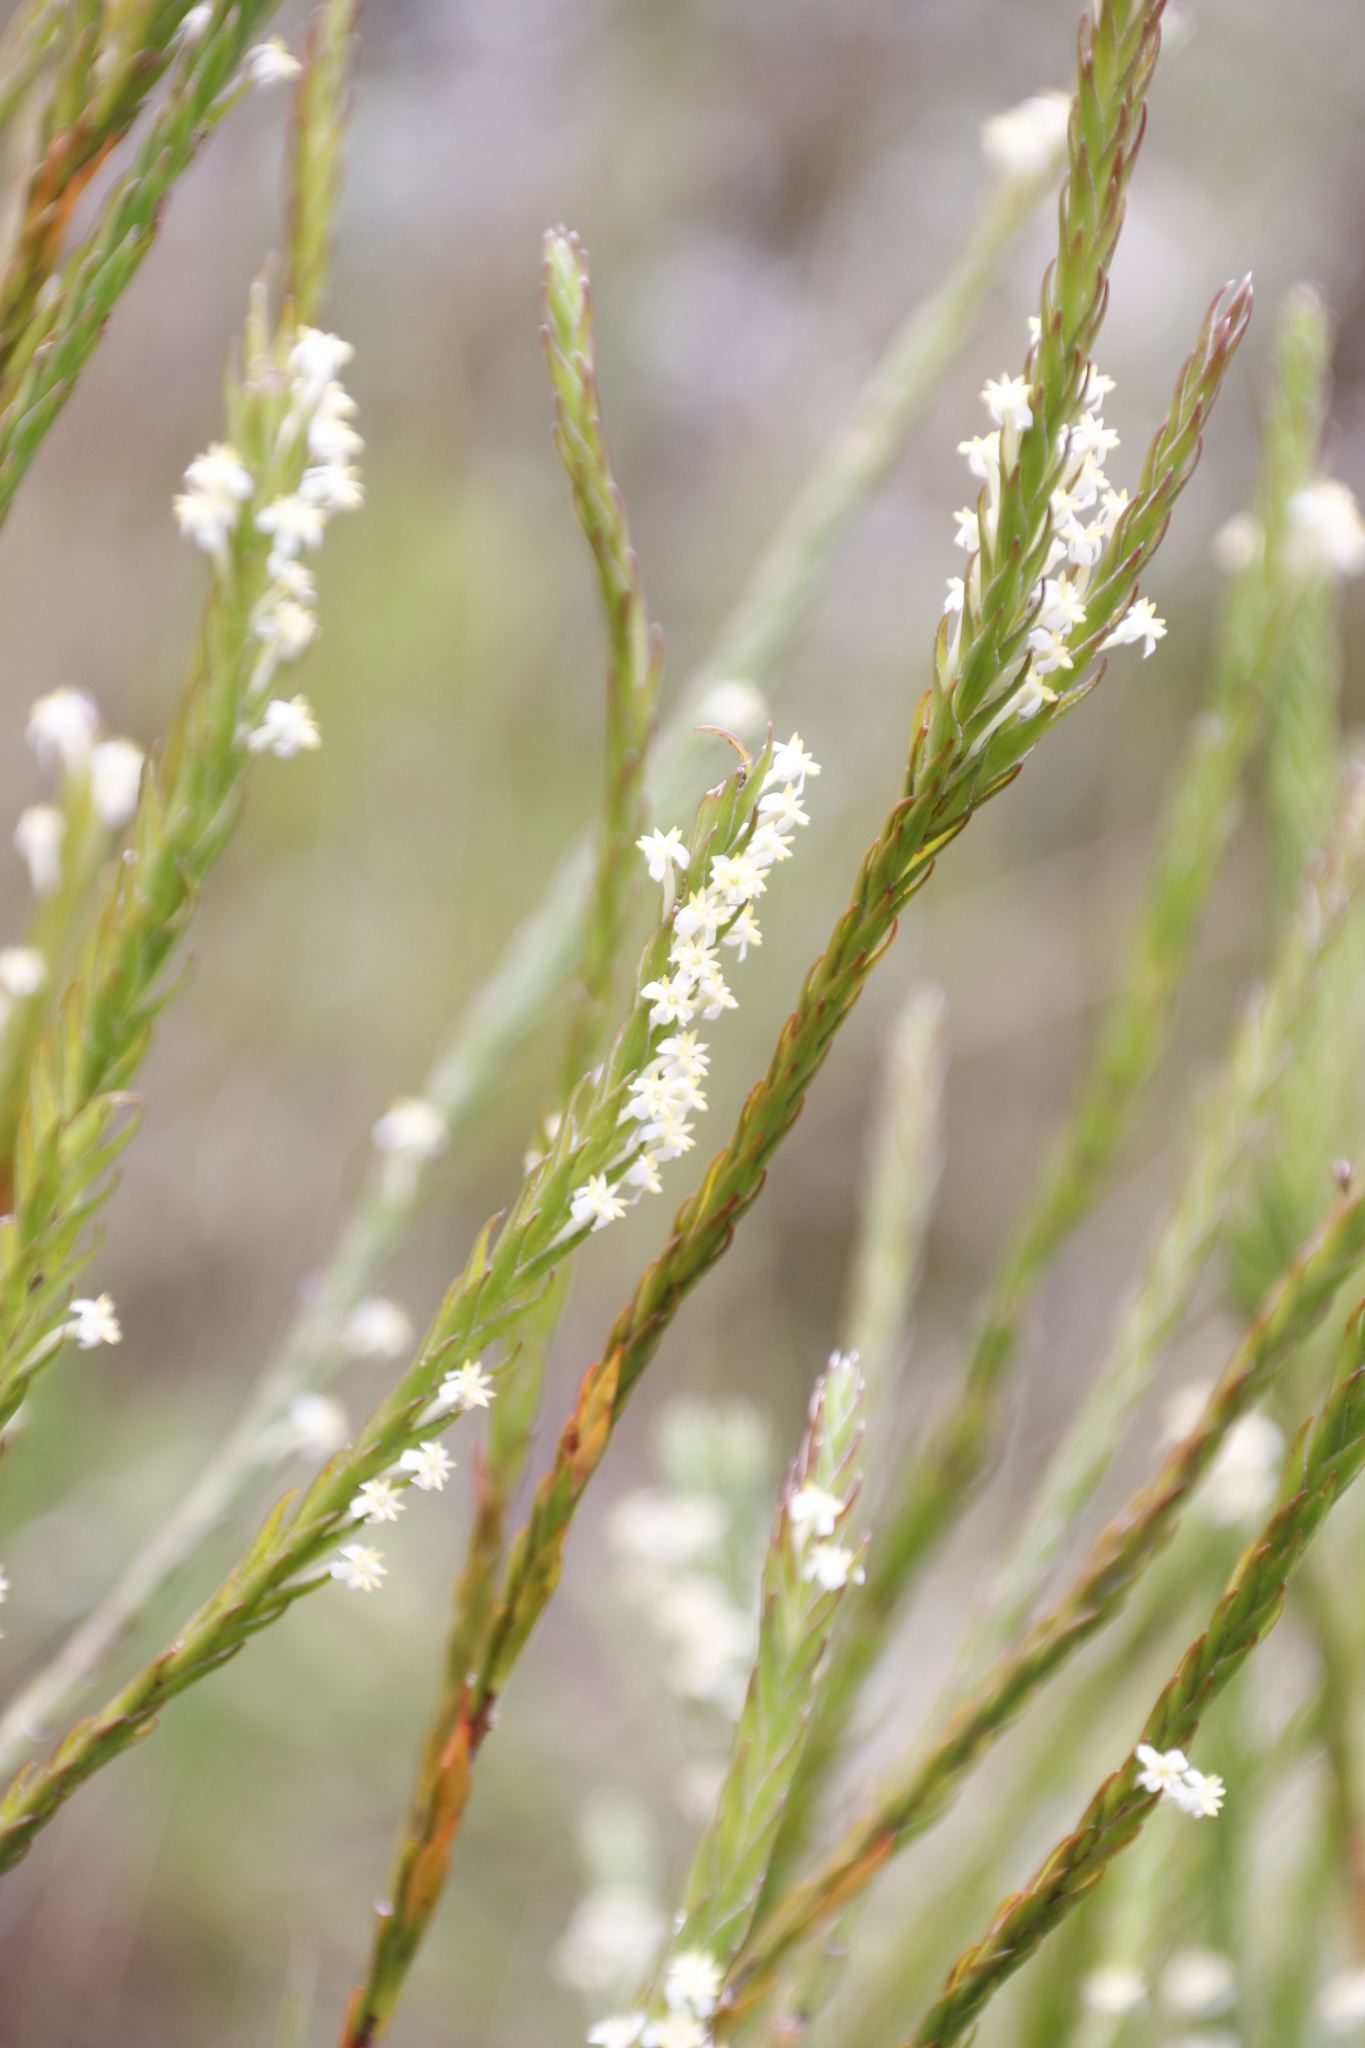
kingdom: Plantae
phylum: Tracheophyta
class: Magnoliopsida
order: Malvales
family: Thymelaeaceae
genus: Struthiola
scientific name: Struthiola ciliata
